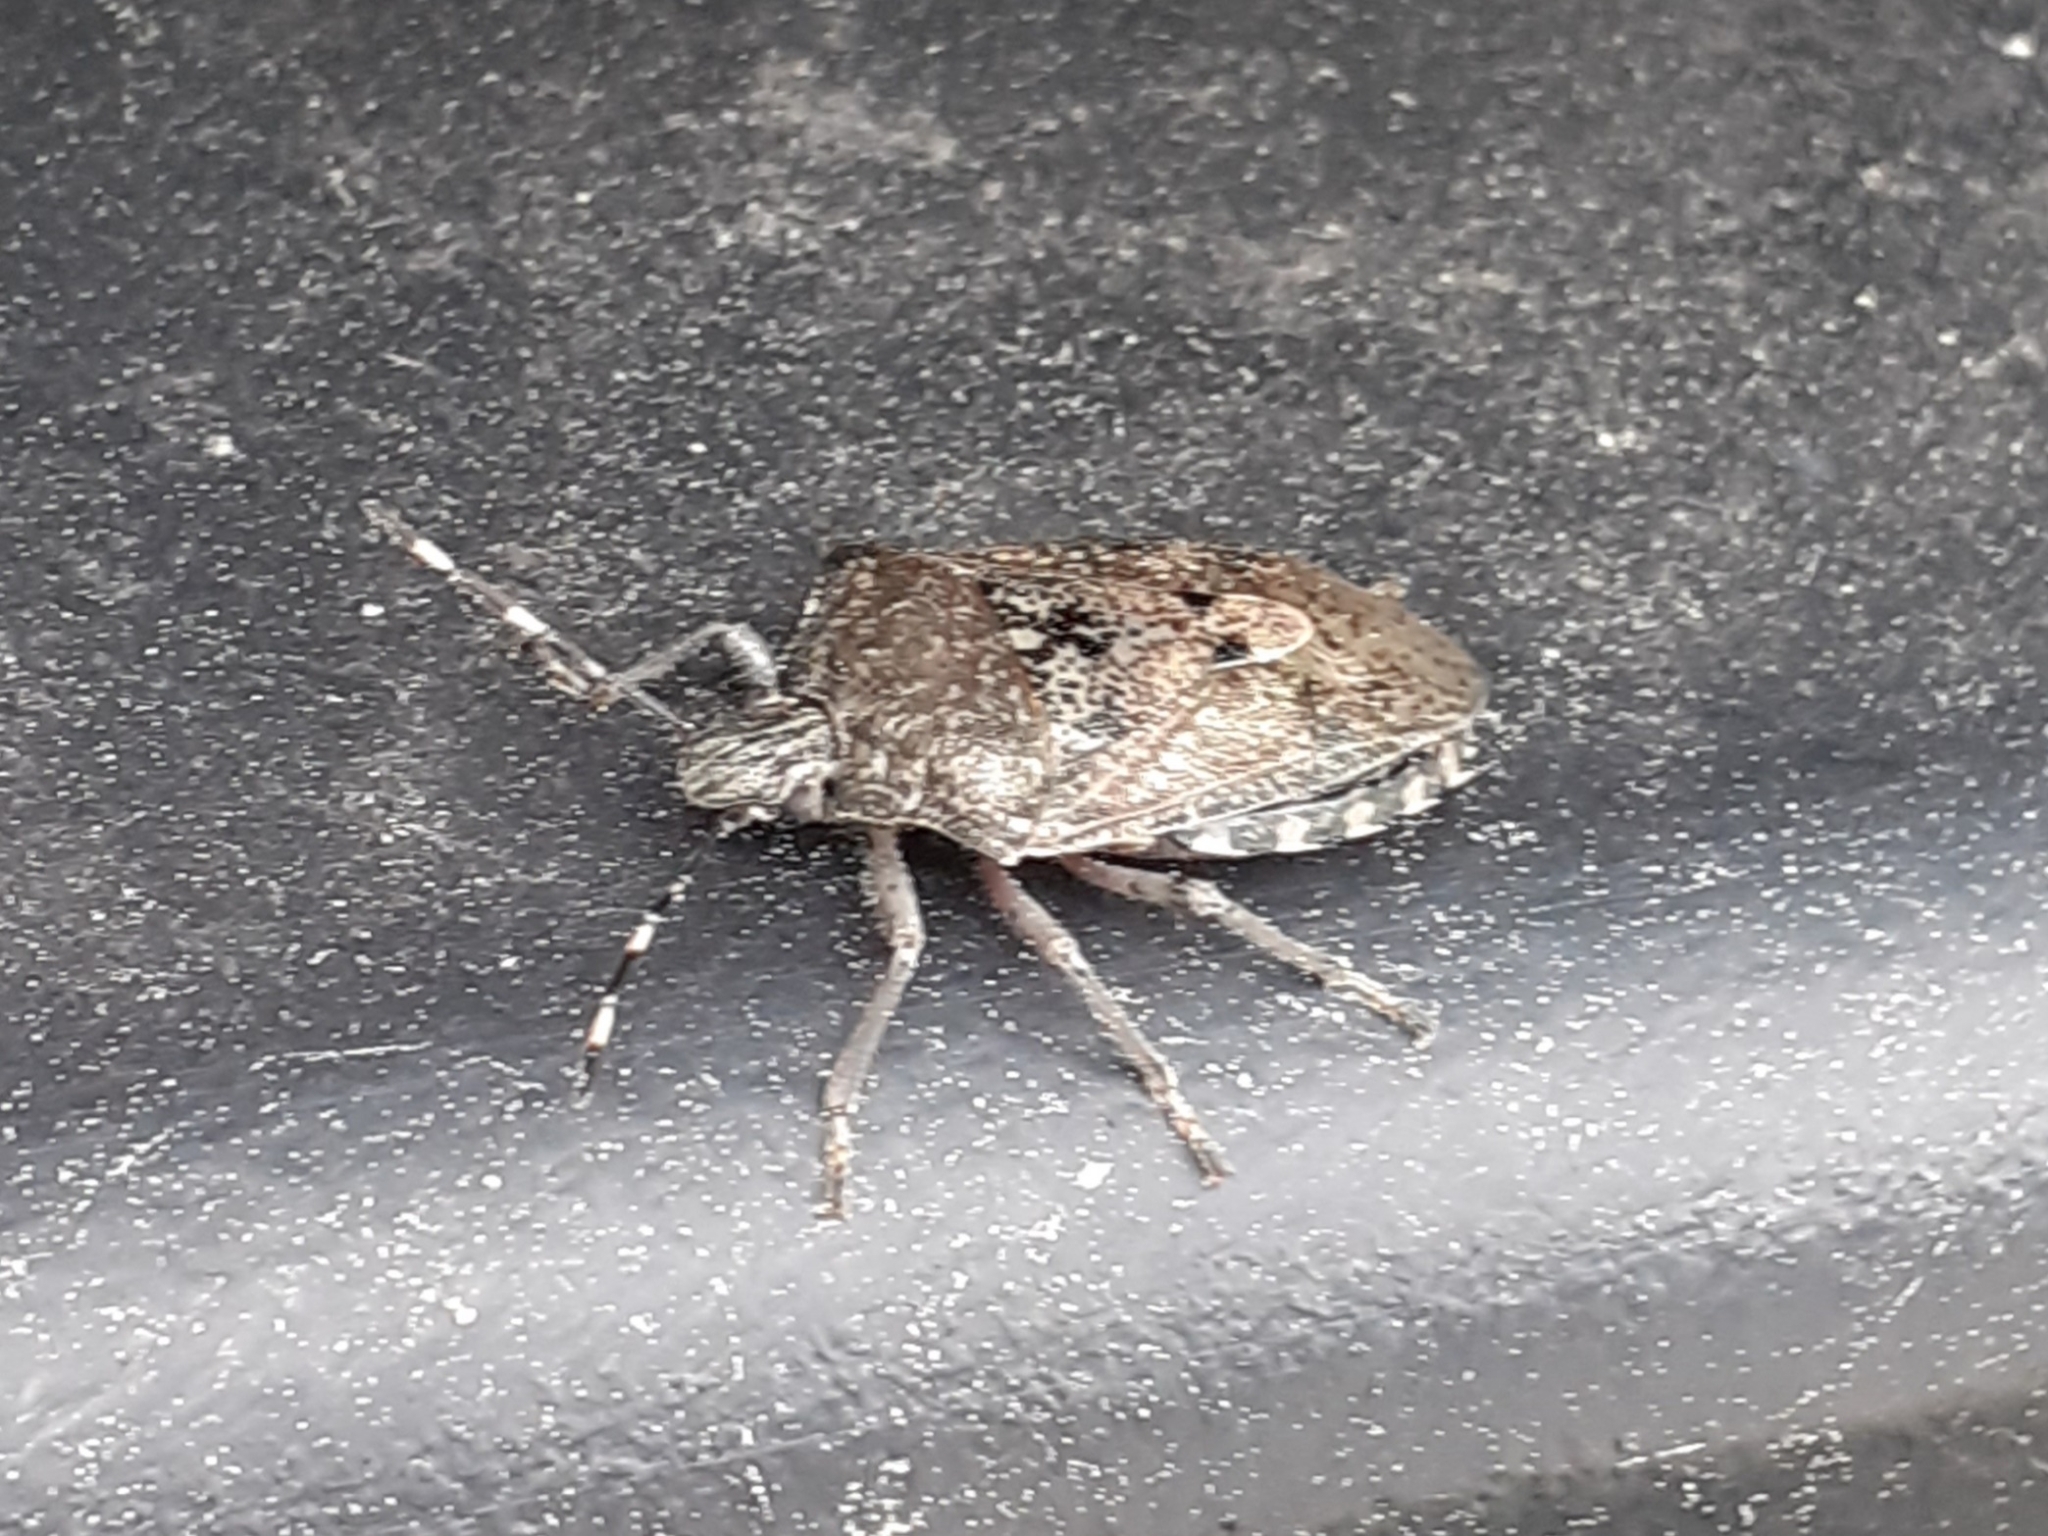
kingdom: Animalia
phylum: Arthropoda
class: Insecta
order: Hemiptera
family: Pentatomidae
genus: Rhaphigaster
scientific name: Rhaphigaster nebulosa
